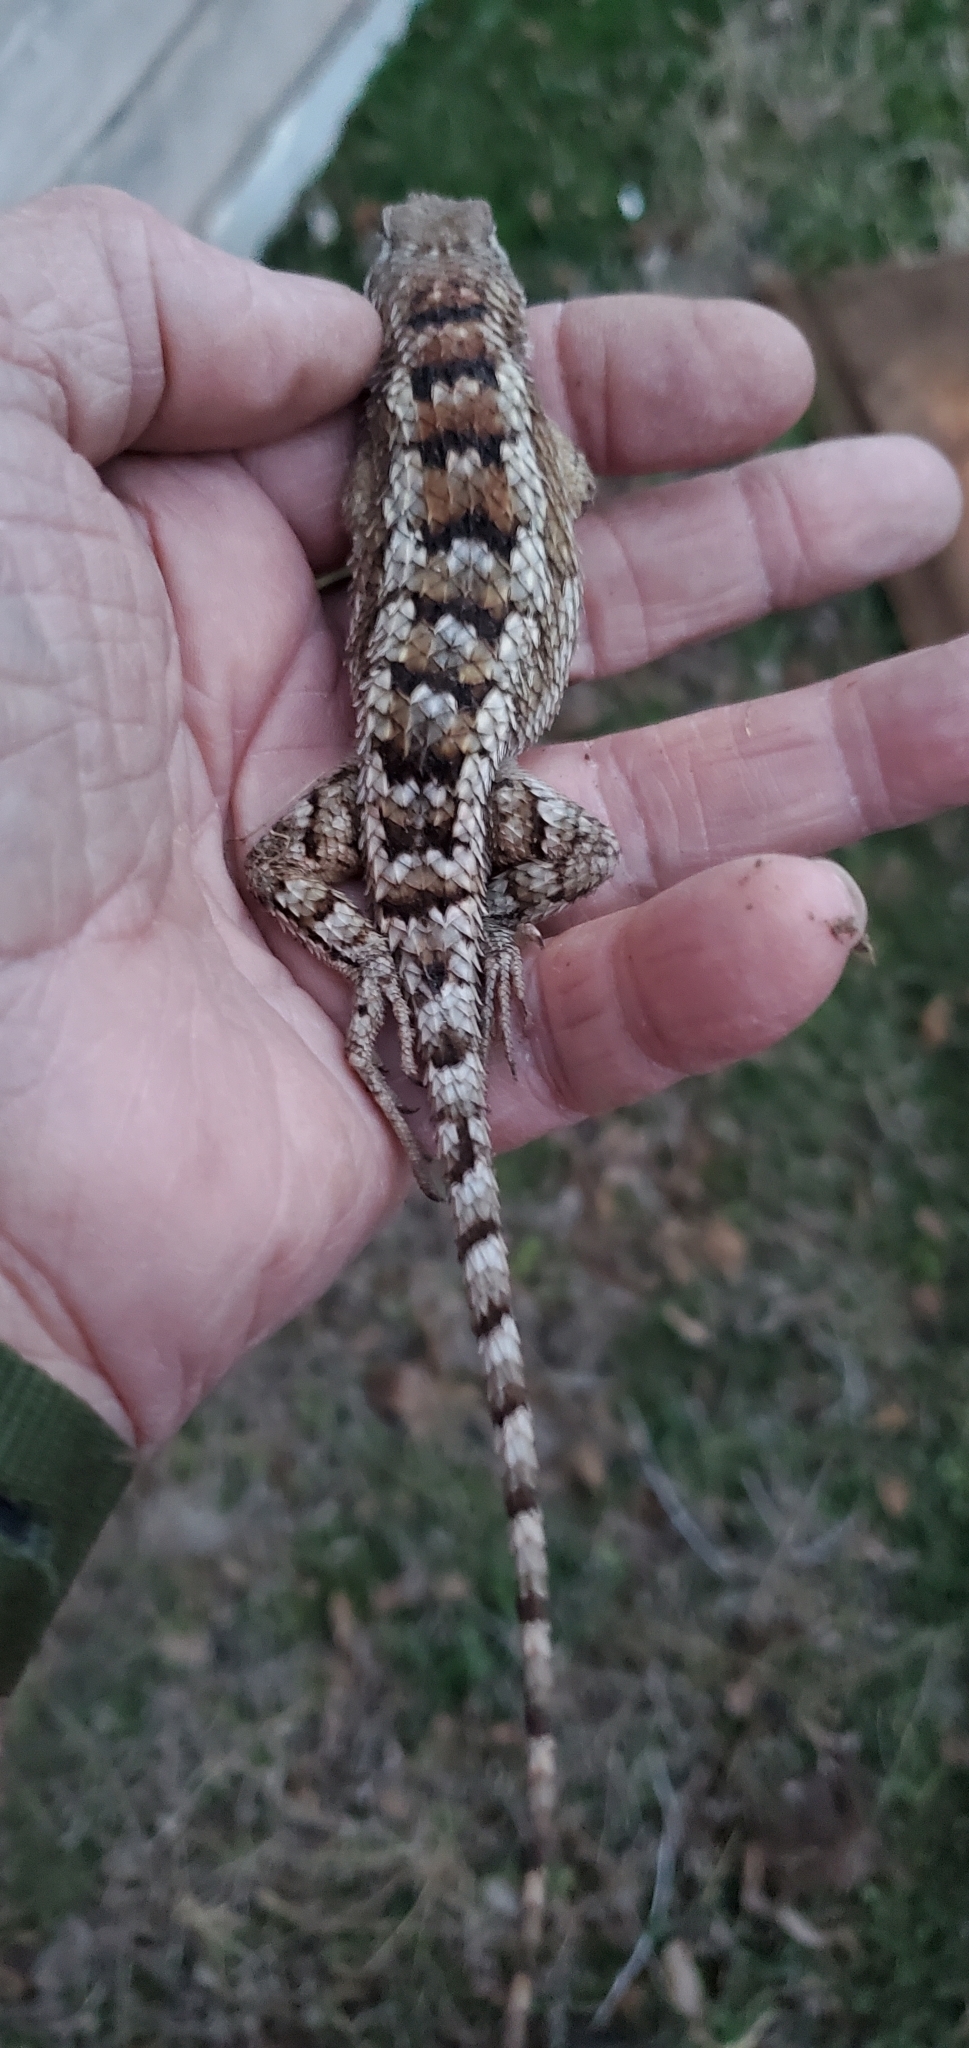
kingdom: Animalia
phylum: Chordata
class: Squamata
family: Phrynosomatidae
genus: Sceloporus
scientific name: Sceloporus olivaceus
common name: Texas spiny lizard
